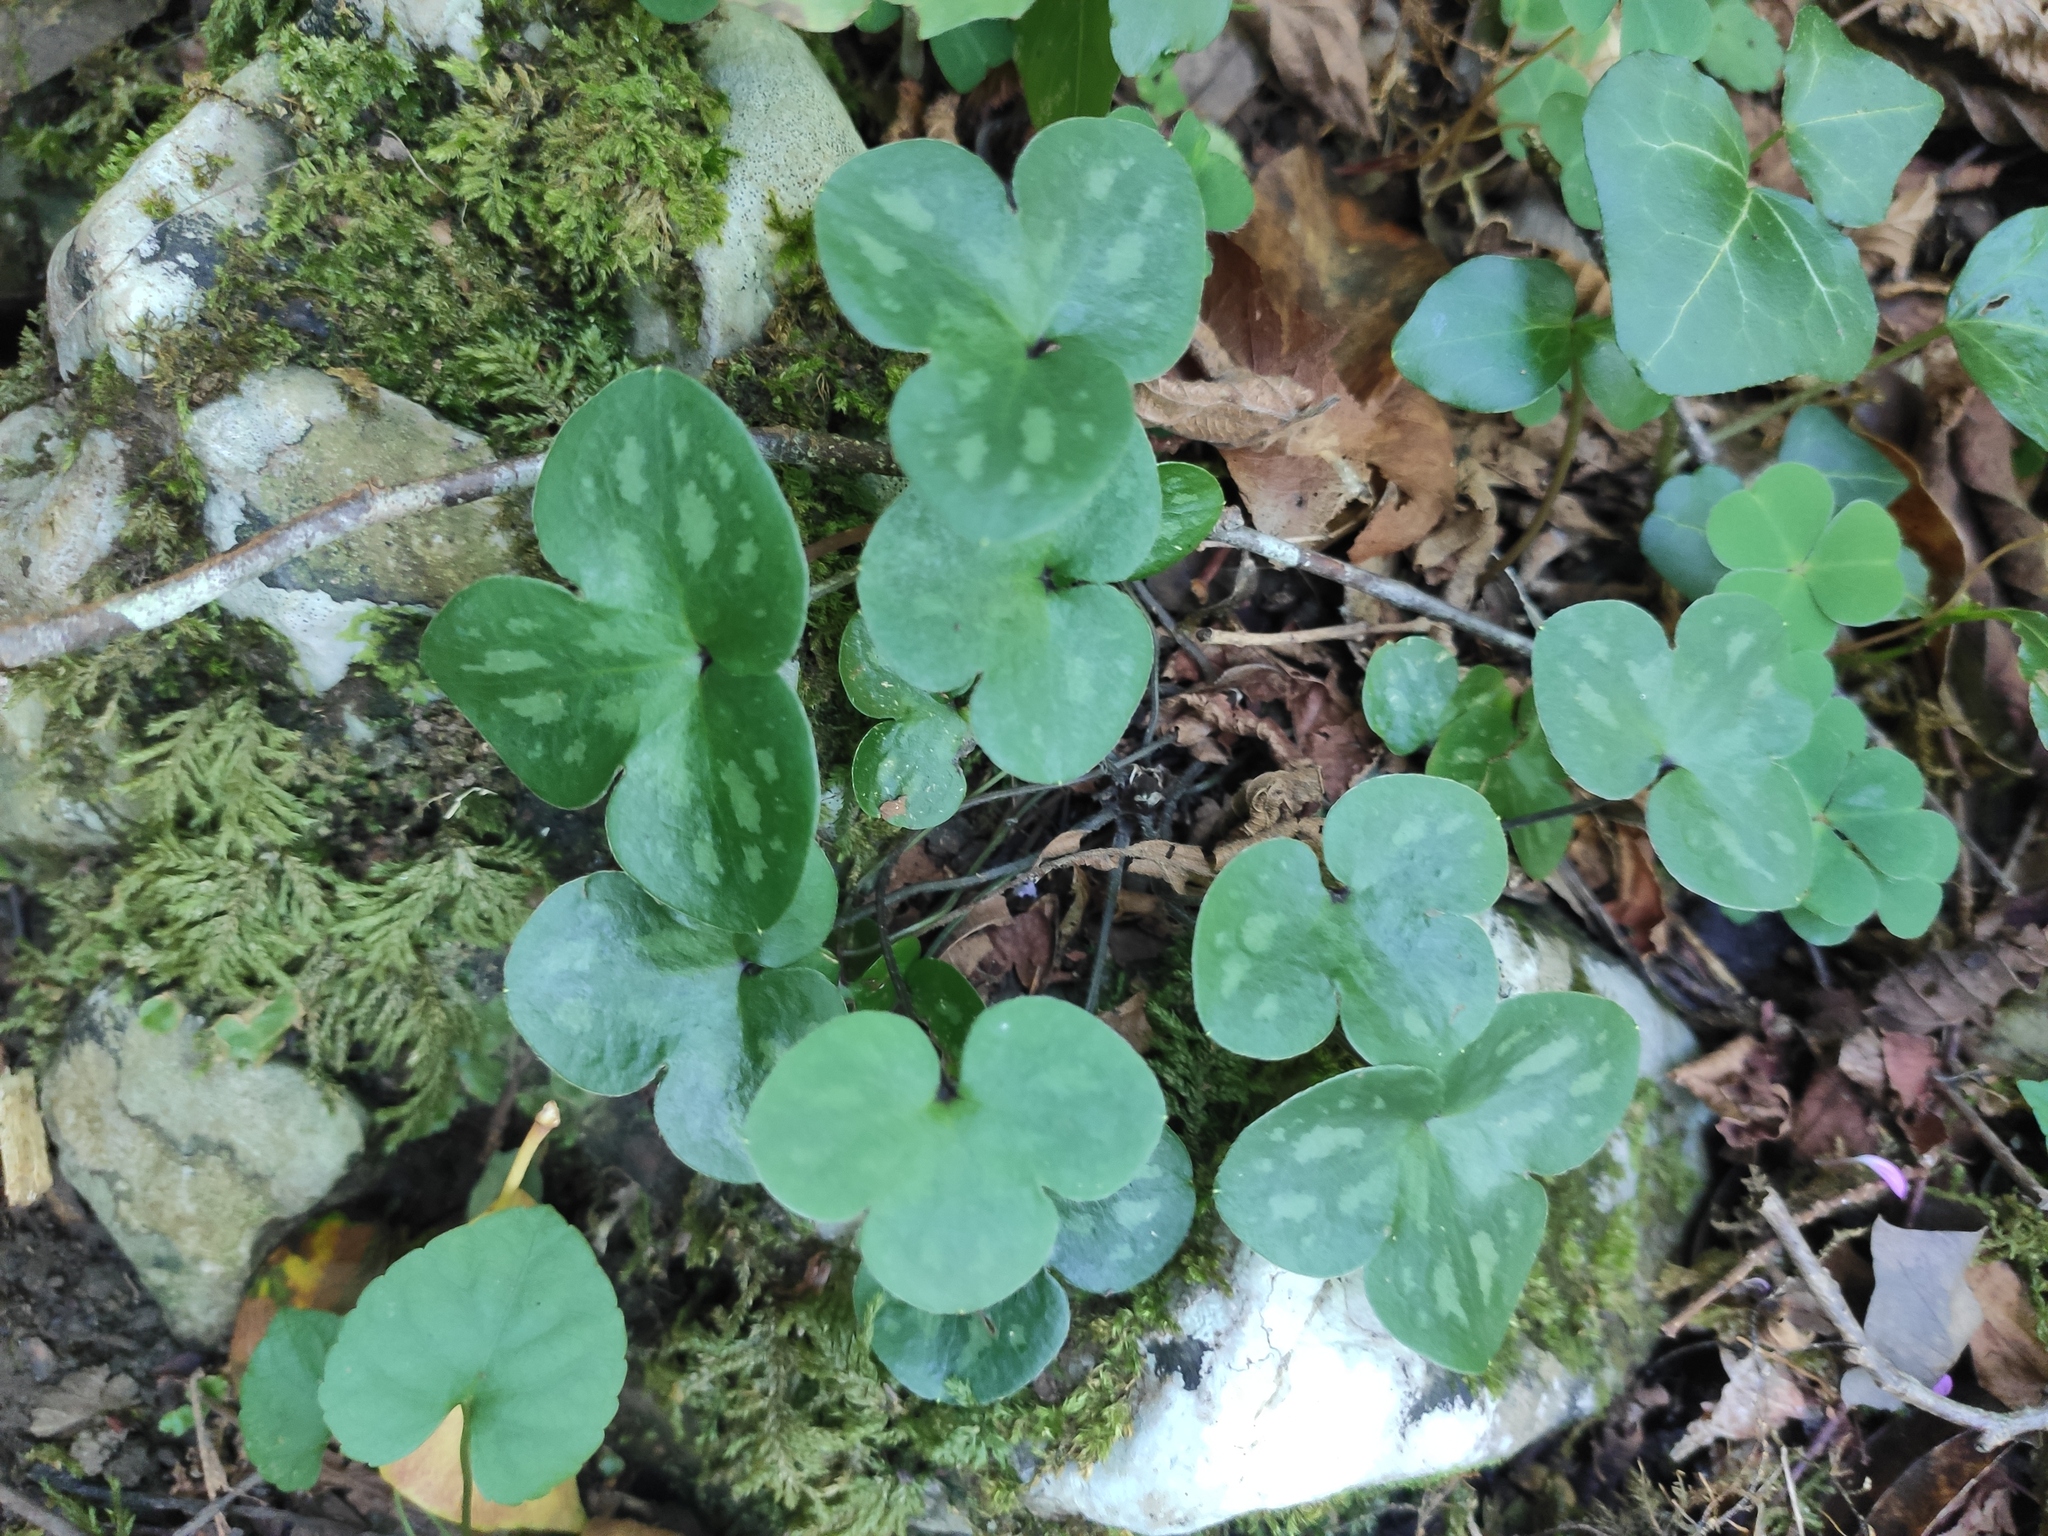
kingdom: Plantae
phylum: Tracheophyta
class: Magnoliopsida
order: Ranunculales
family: Ranunculaceae
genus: Hepatica
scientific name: Hepatica nobilis
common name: Liverleaf
